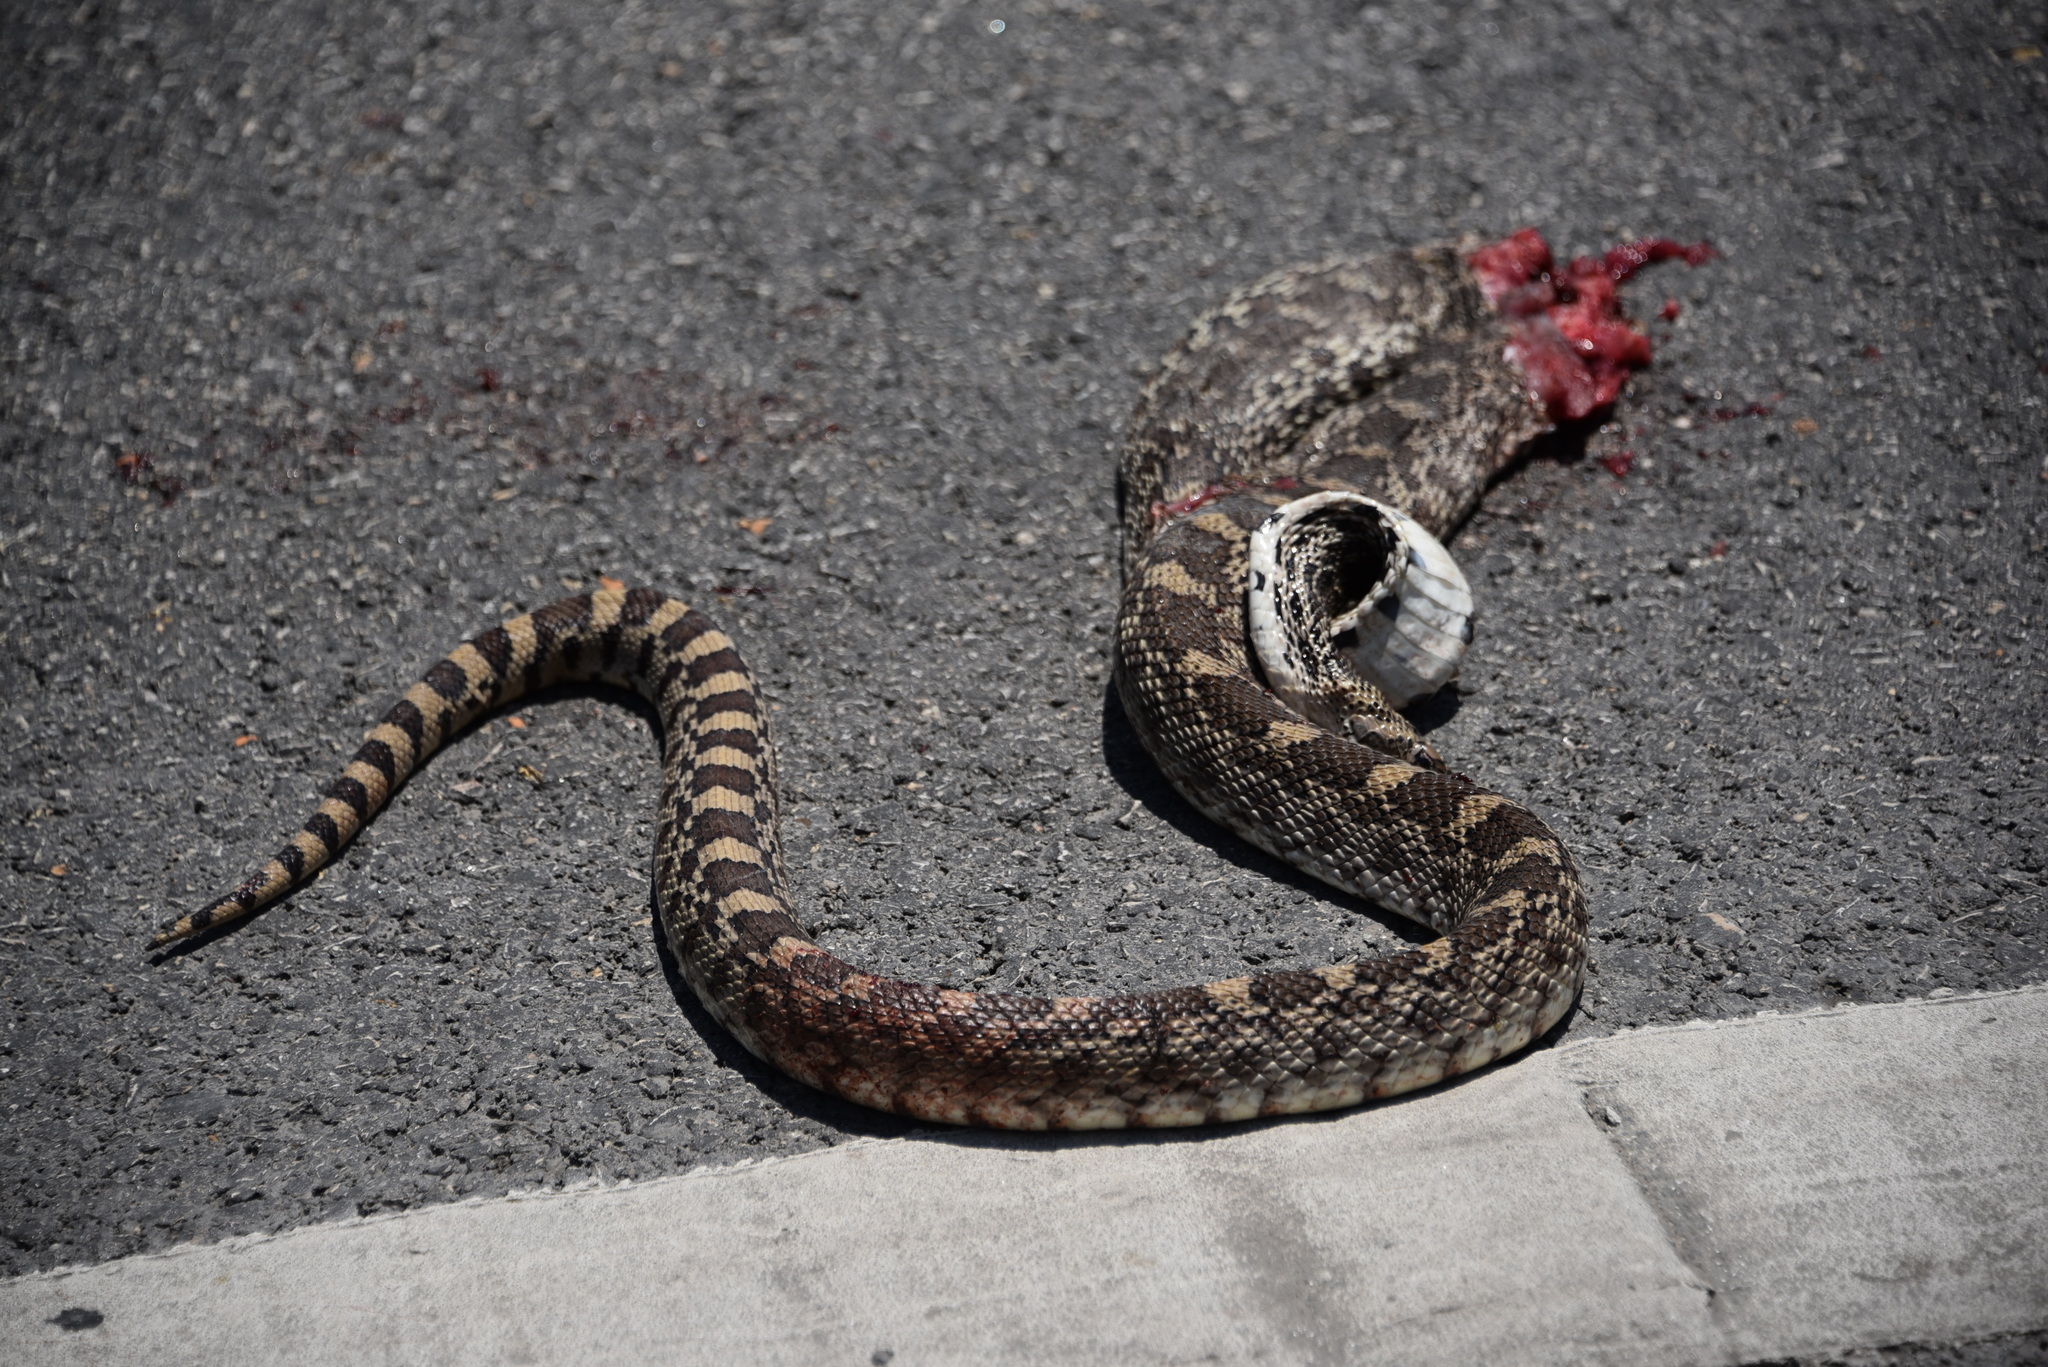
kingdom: Animalia
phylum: Chordata
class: Squamata
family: Colubridae
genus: Pituophis
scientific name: Pituophis catenifer
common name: Gopher snake
